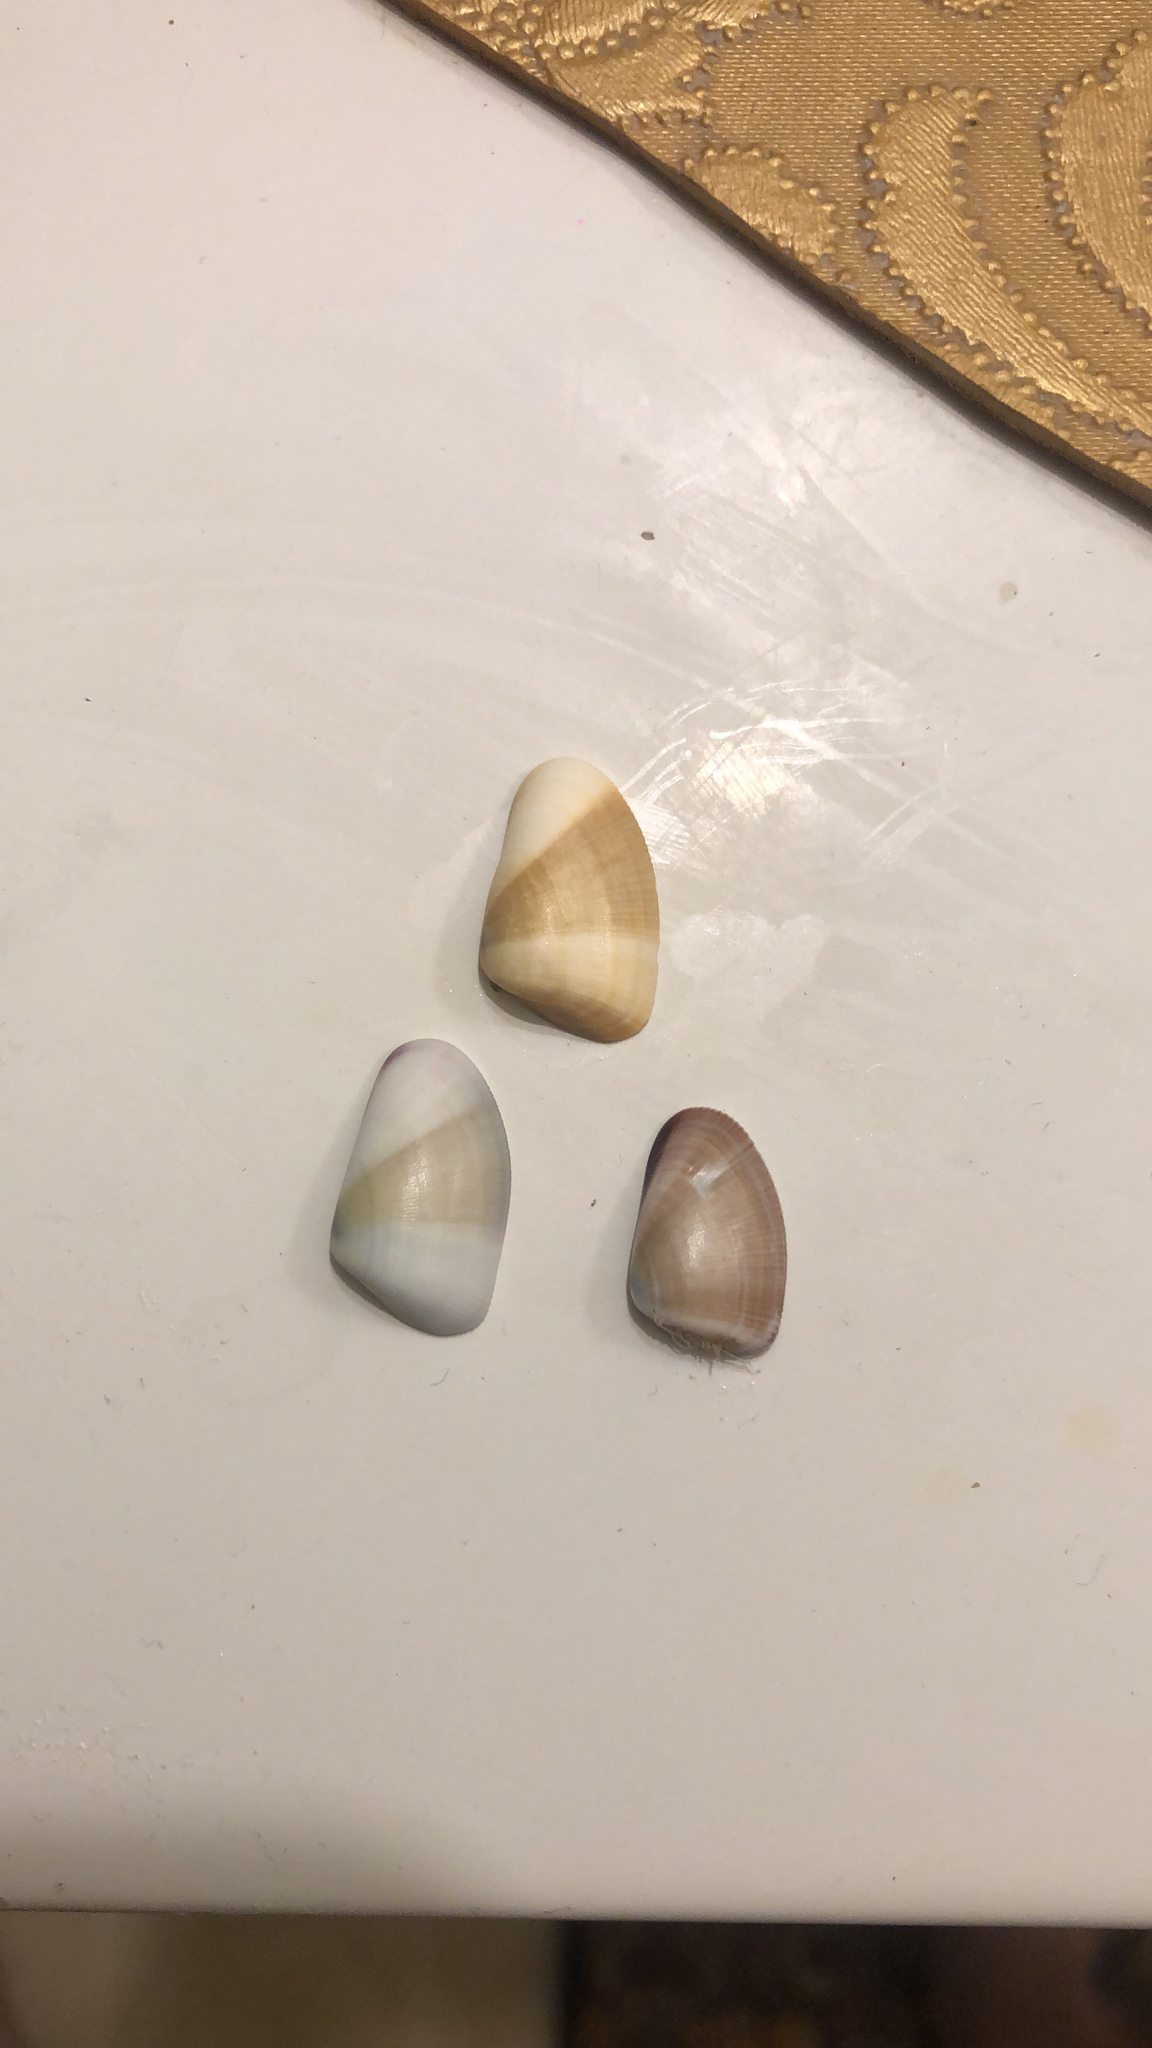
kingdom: Animalia
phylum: Mollusca
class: Bivalvia
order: Cardiida
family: Donacidae
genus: Donax
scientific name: Donax gouldii
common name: Gould beanclam
